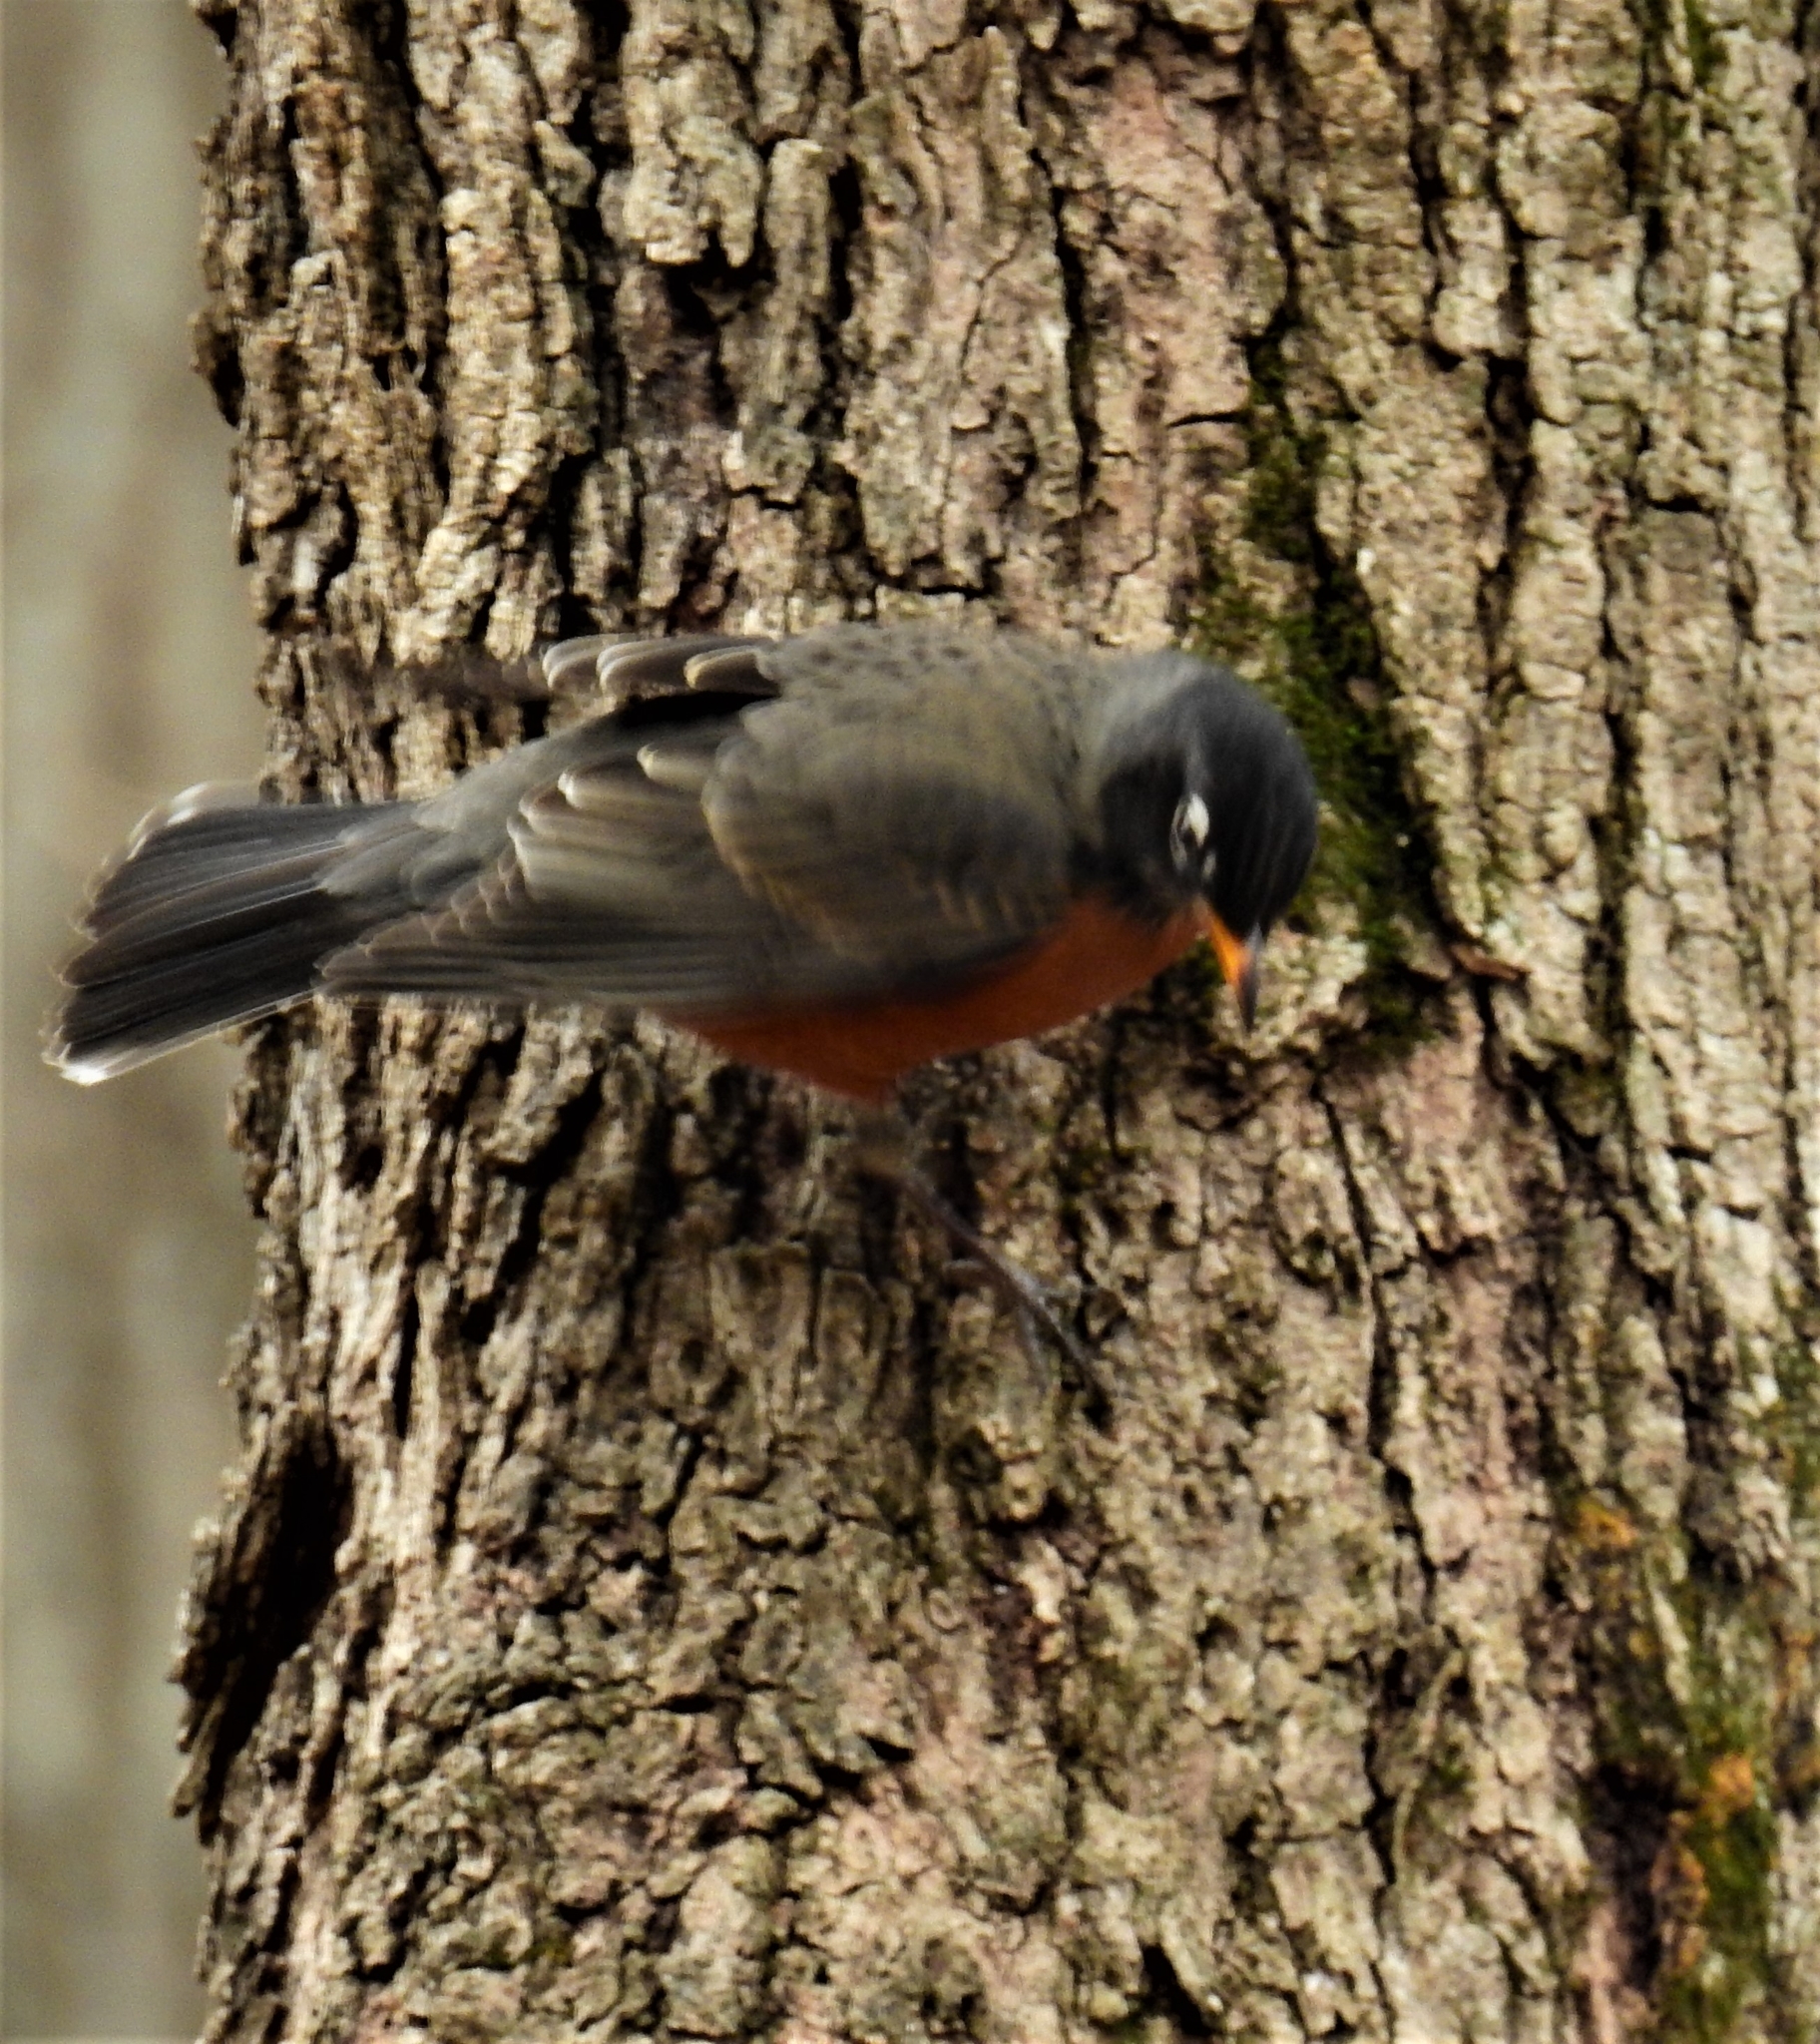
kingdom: Animalia
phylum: Chordata
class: Aves
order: Passeriformes
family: Turdidae
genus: Turdus
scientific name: Turdus migratorius
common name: American robin
